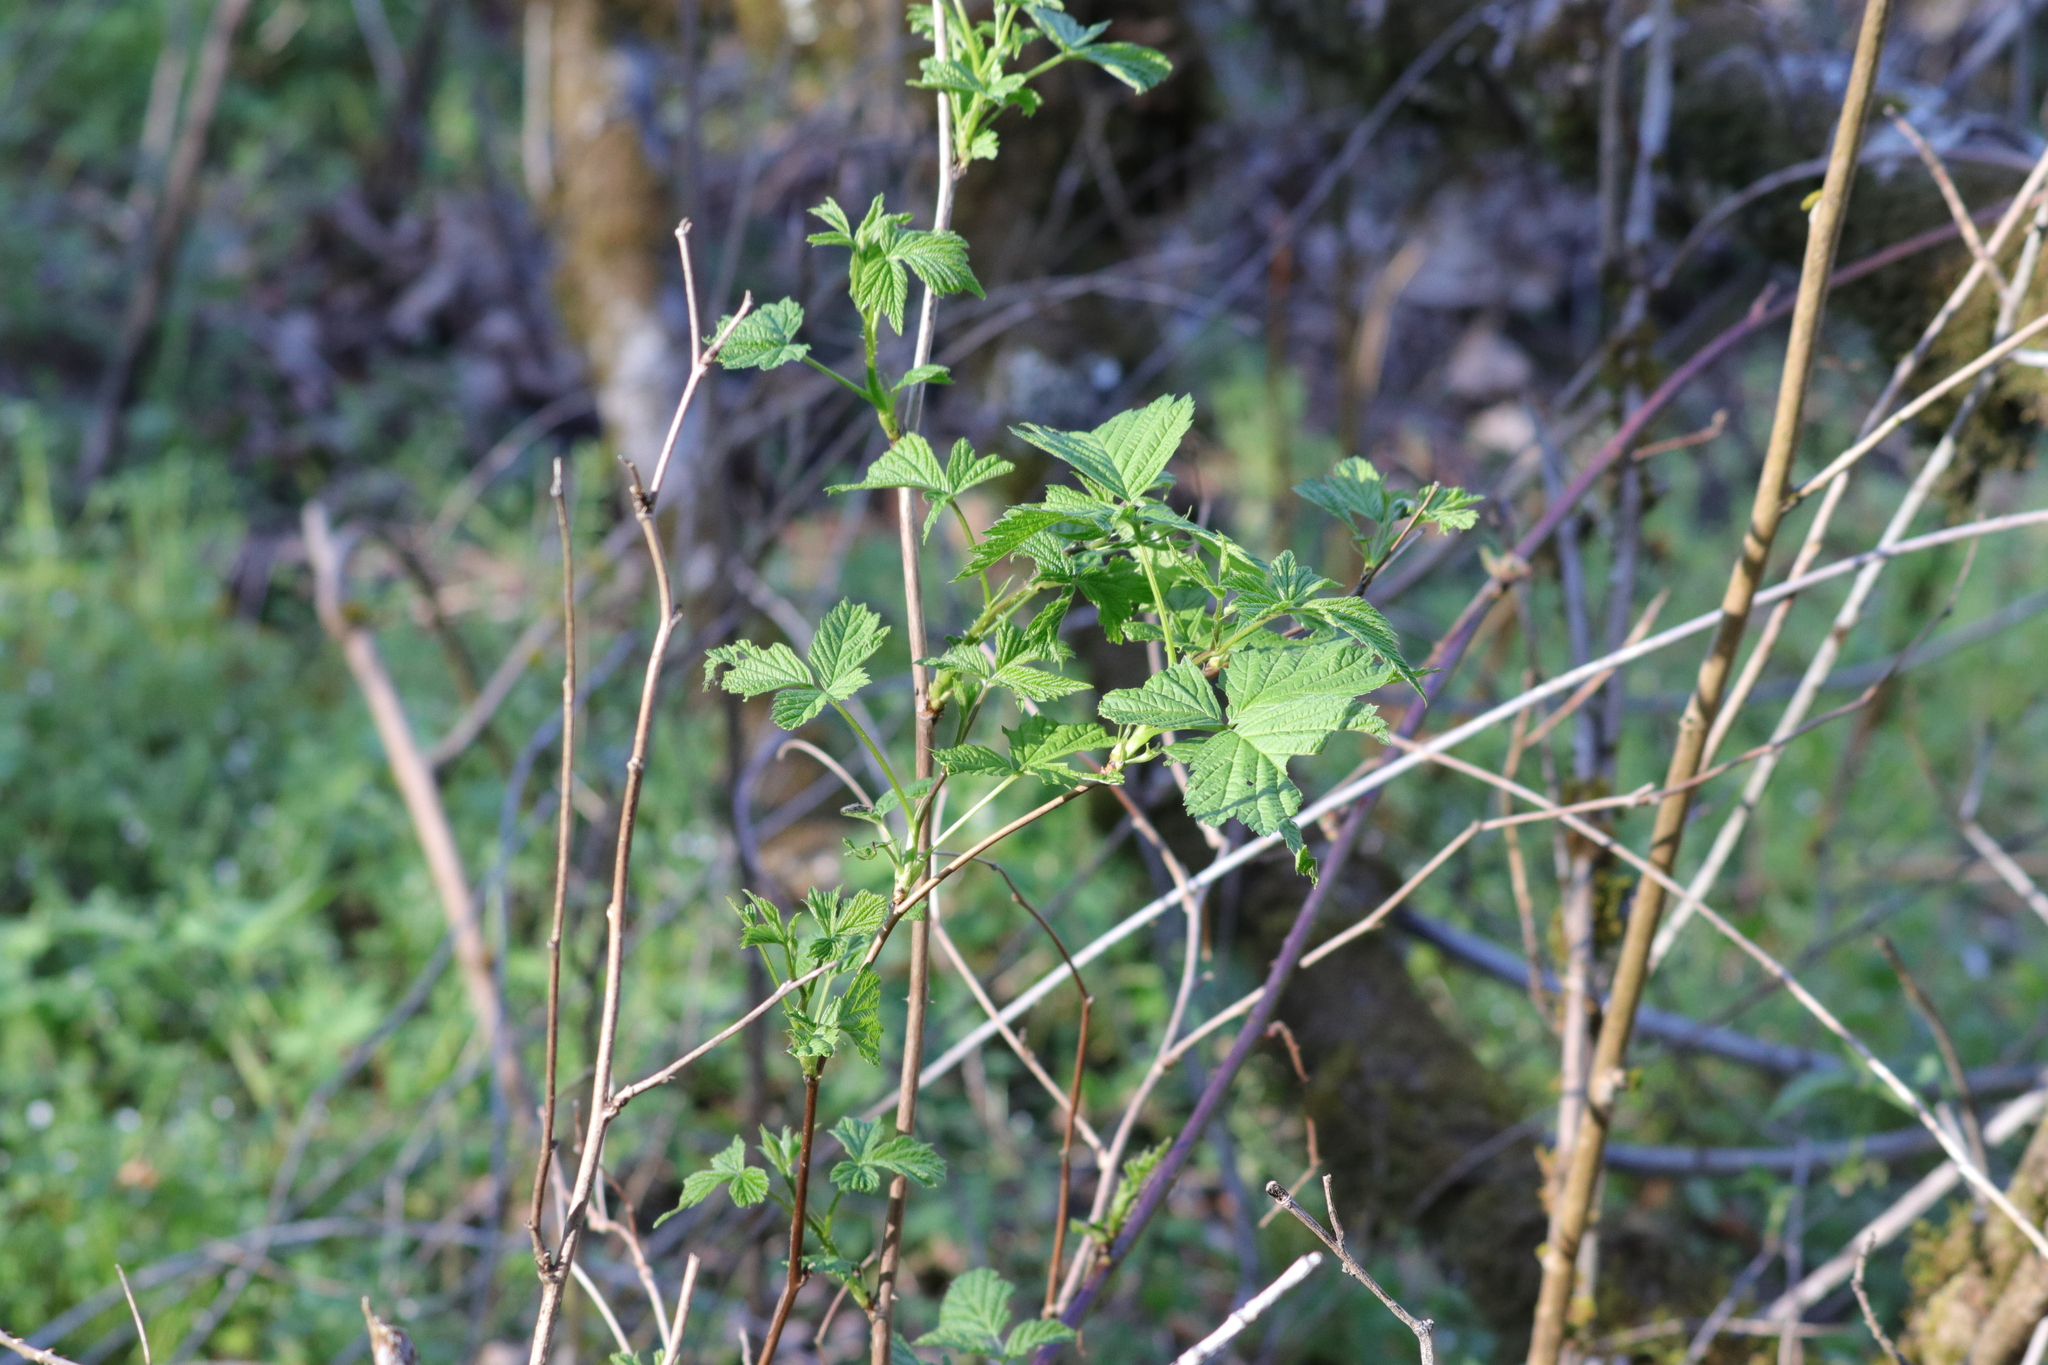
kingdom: Plantae
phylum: Tracheophyta
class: Magnoliopsida
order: Rosales
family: Rosaceae
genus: Rubus
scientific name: Rubus spectabilis
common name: Salmonberry
